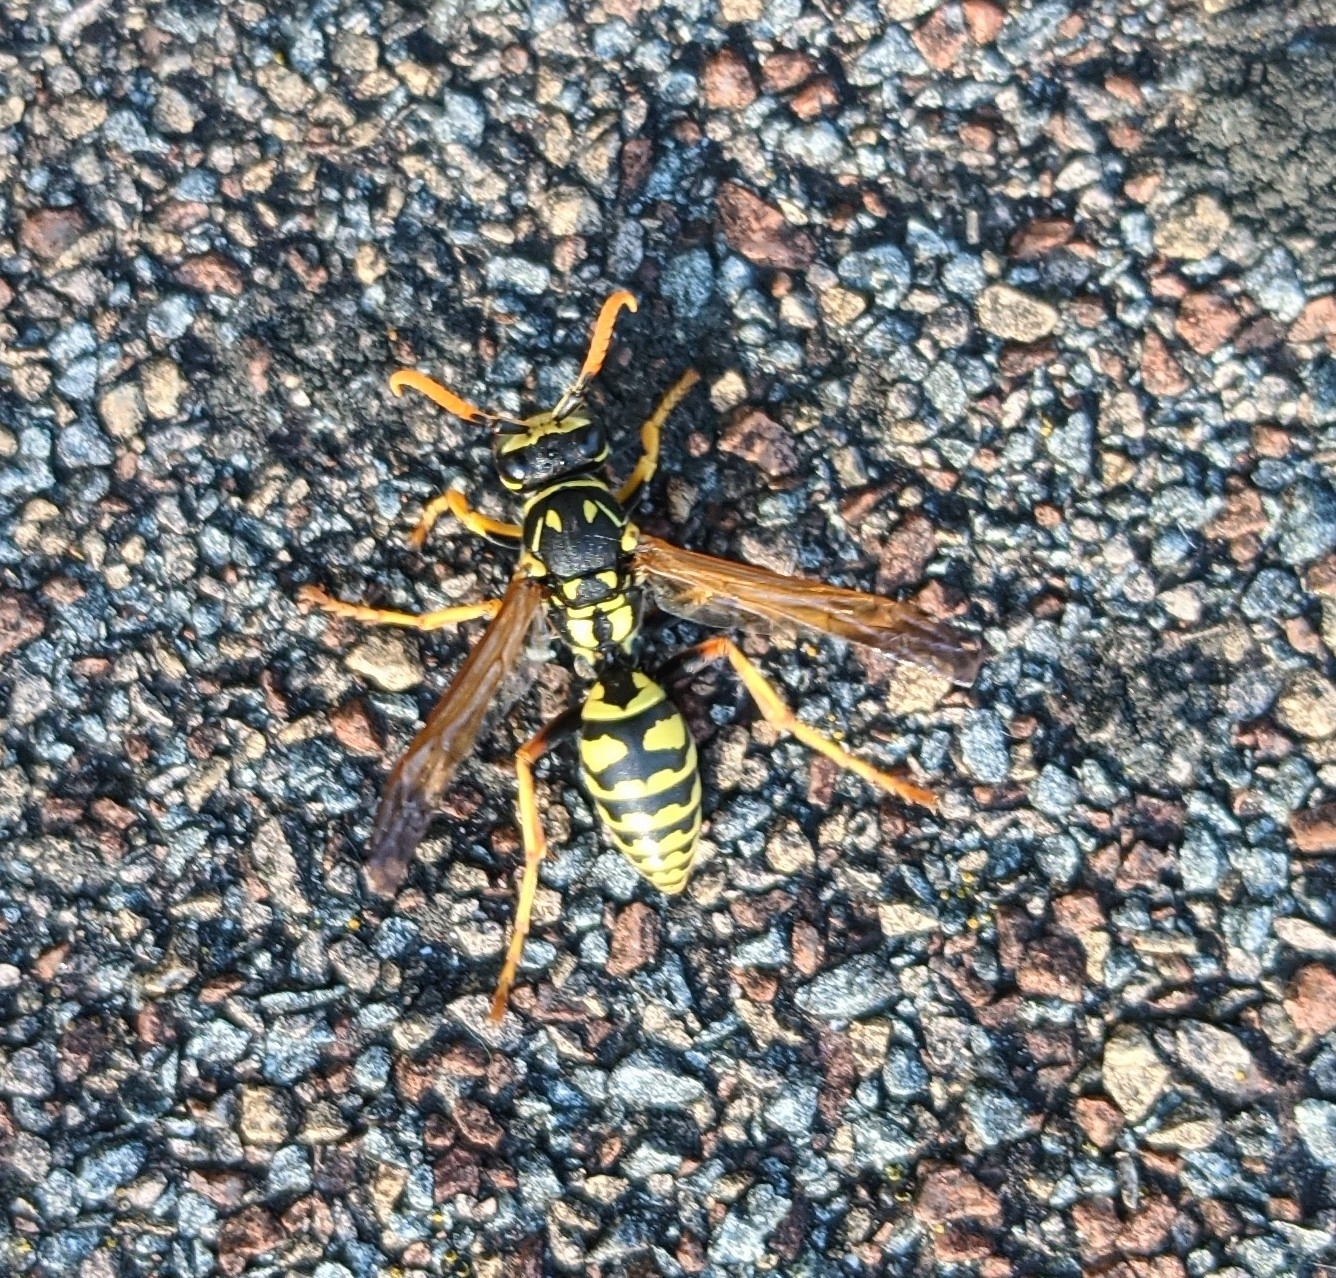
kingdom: Animalia
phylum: Arthropoda
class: Insecta
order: Hymenoptera
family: Eumenidae
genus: Polistes
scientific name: Polistes dominula
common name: Paper wasp
